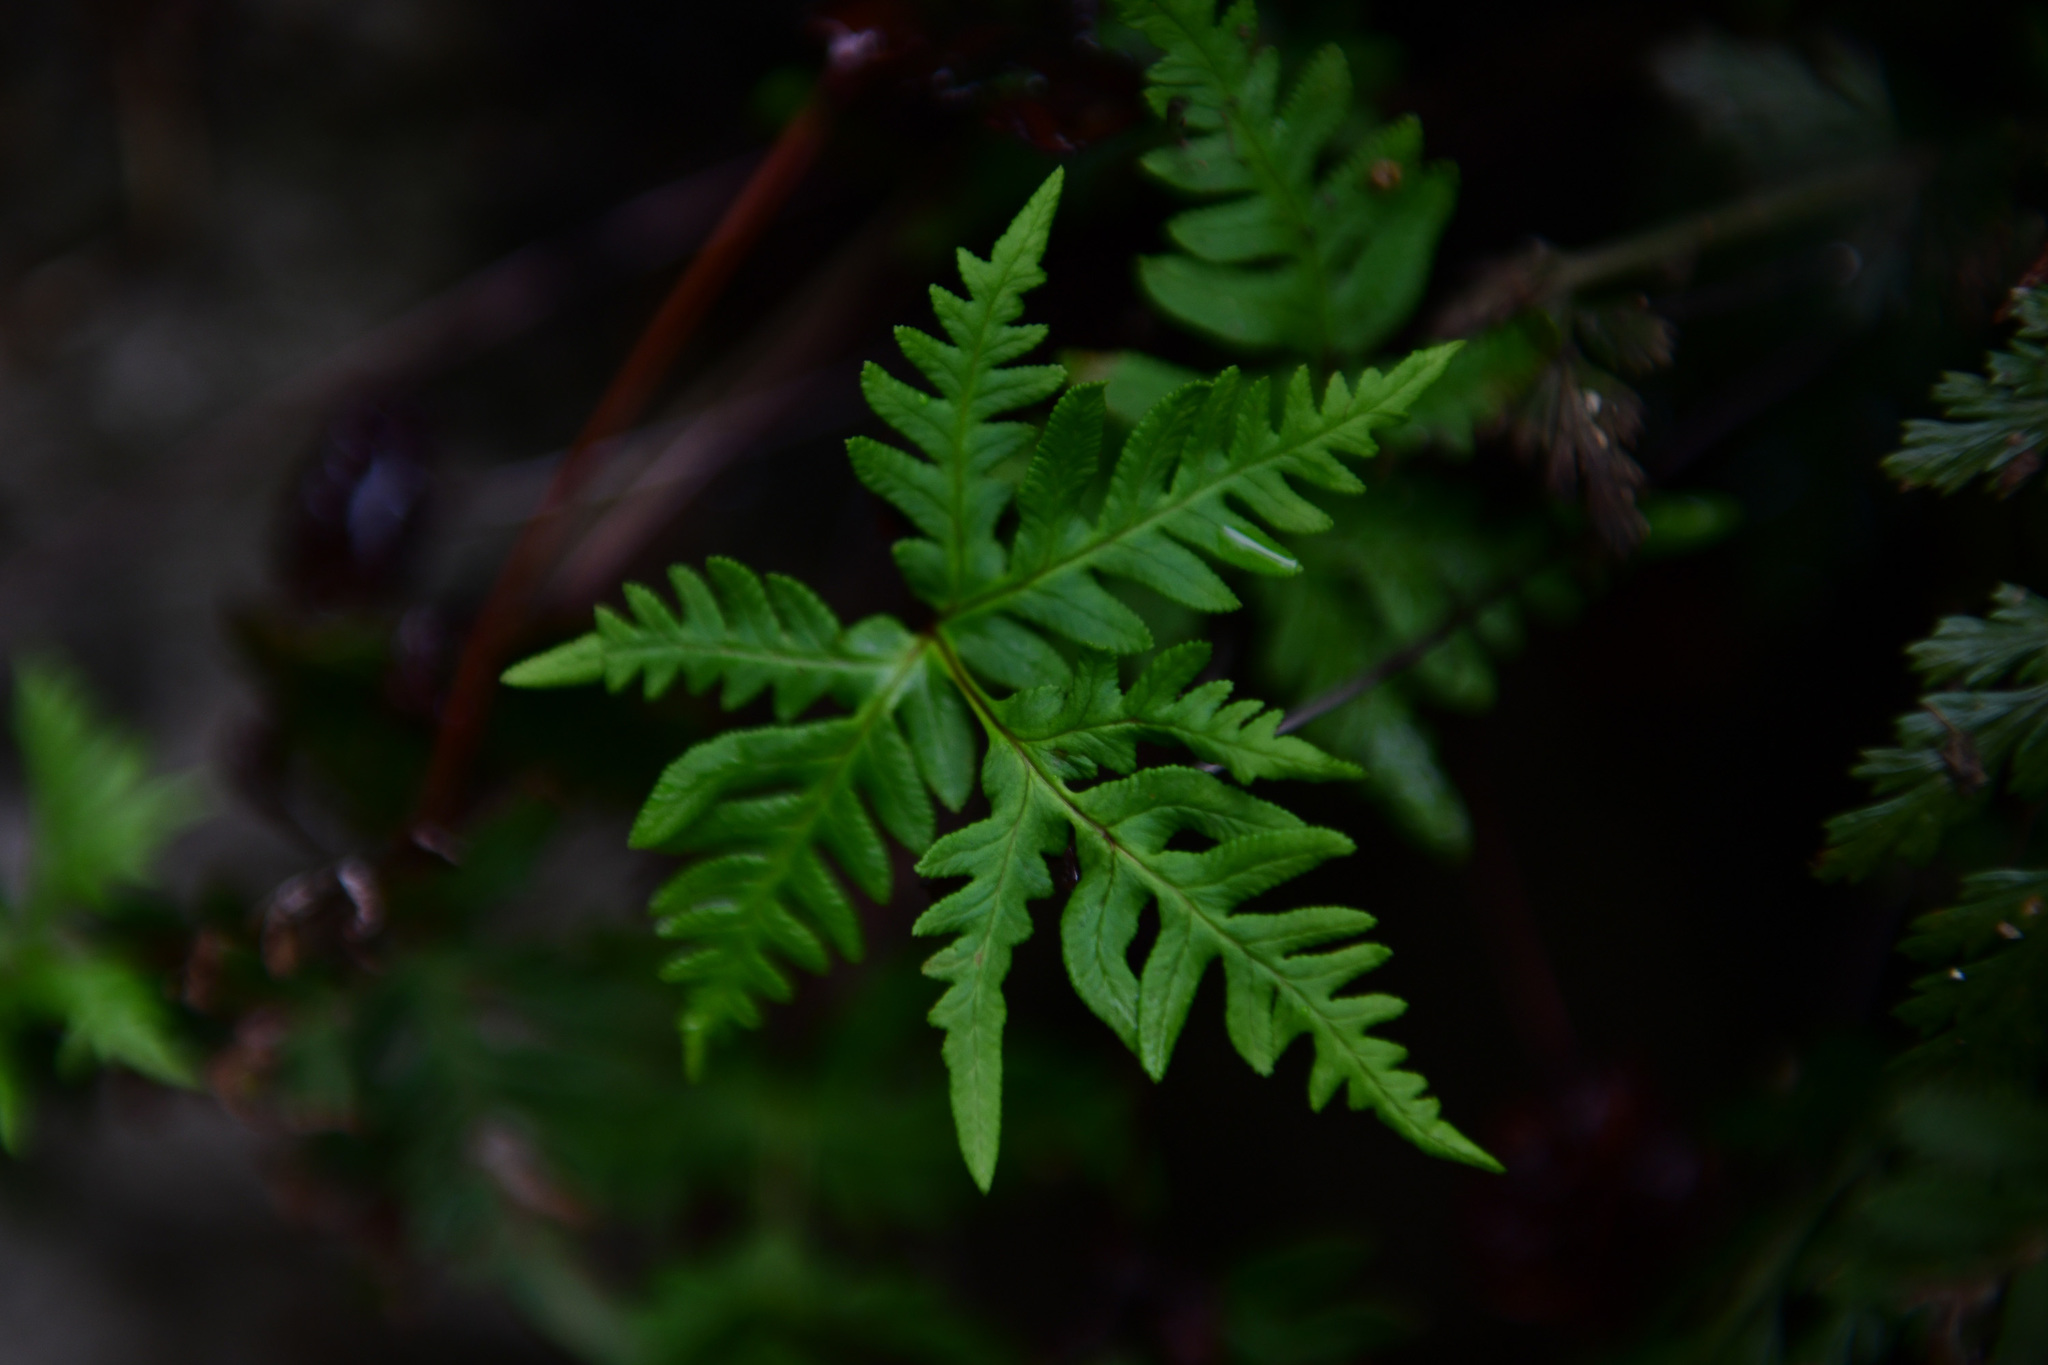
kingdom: Plantae
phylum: Tracheophyta
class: Polypodiopsida
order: Polypodiales
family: Pteridaceae
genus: Aleuritopteris
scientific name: Aleuritopteris argentea
